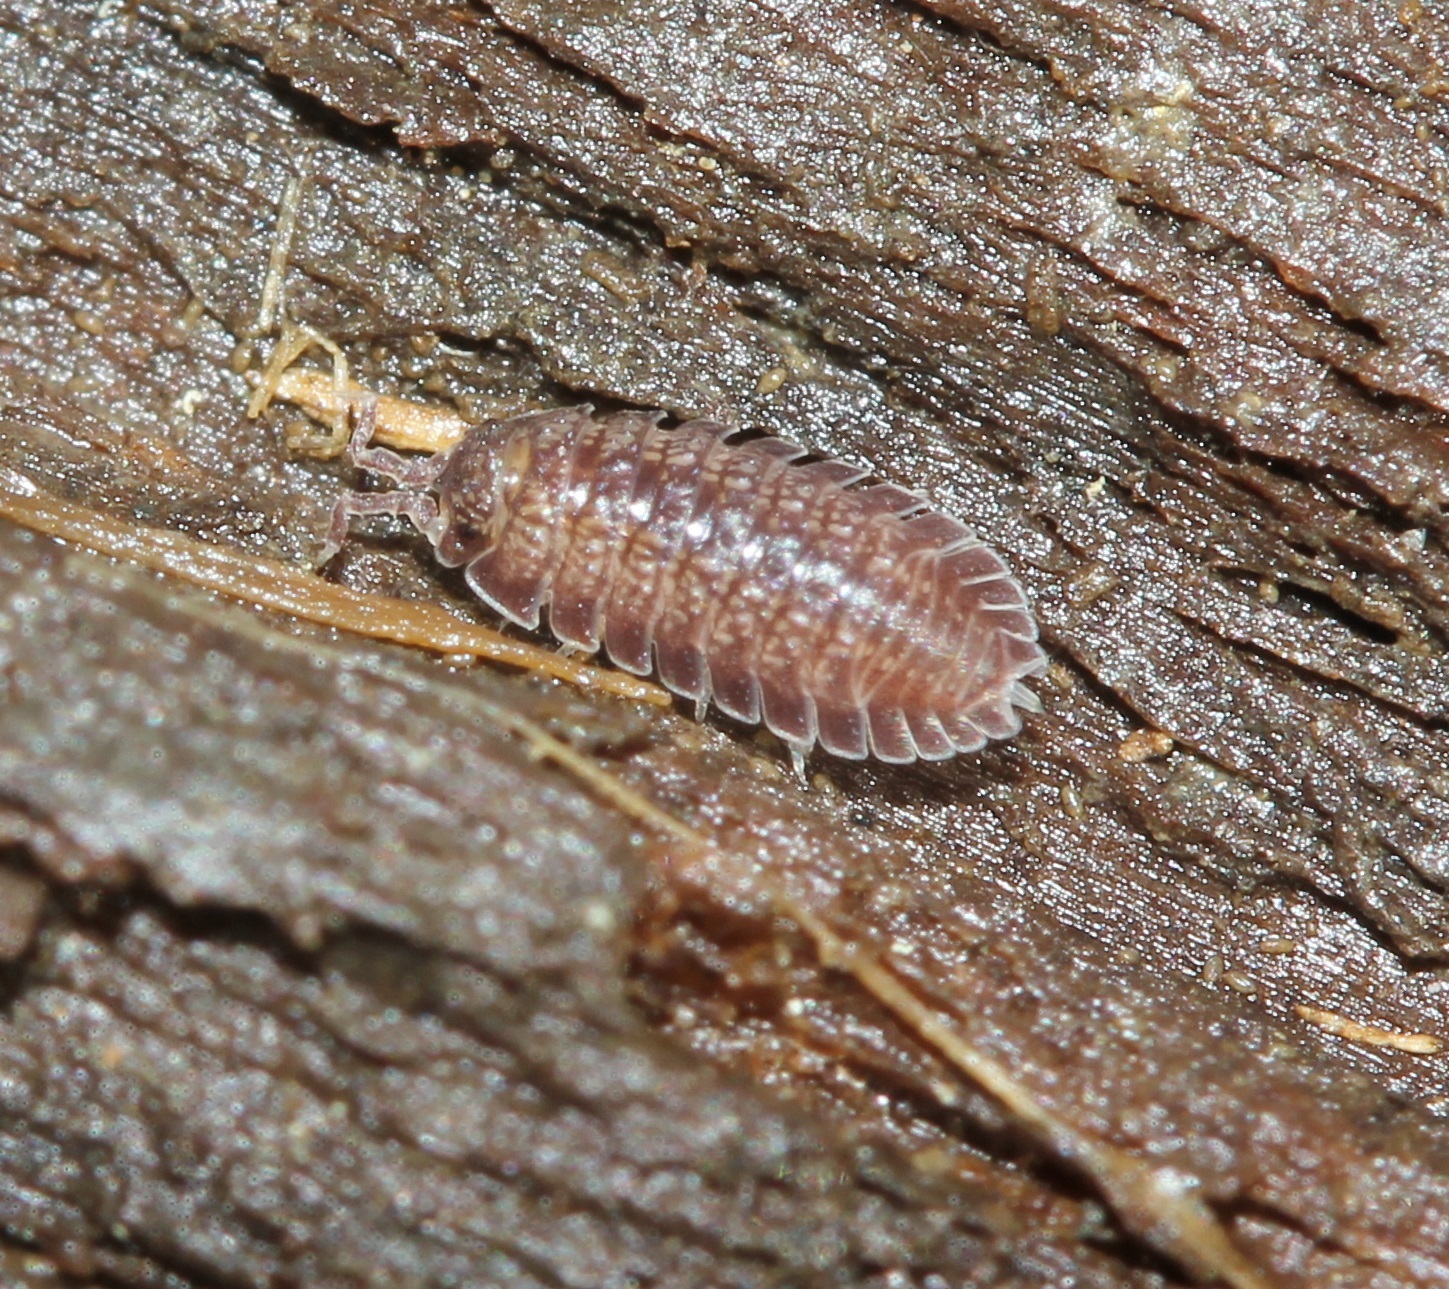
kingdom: Animalia
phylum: Arthropoda
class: Malacostraca
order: Isopoda
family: Detonidae
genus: Armadilloniscus
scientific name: Armadilloniscus ellipticus
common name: Pillbug
